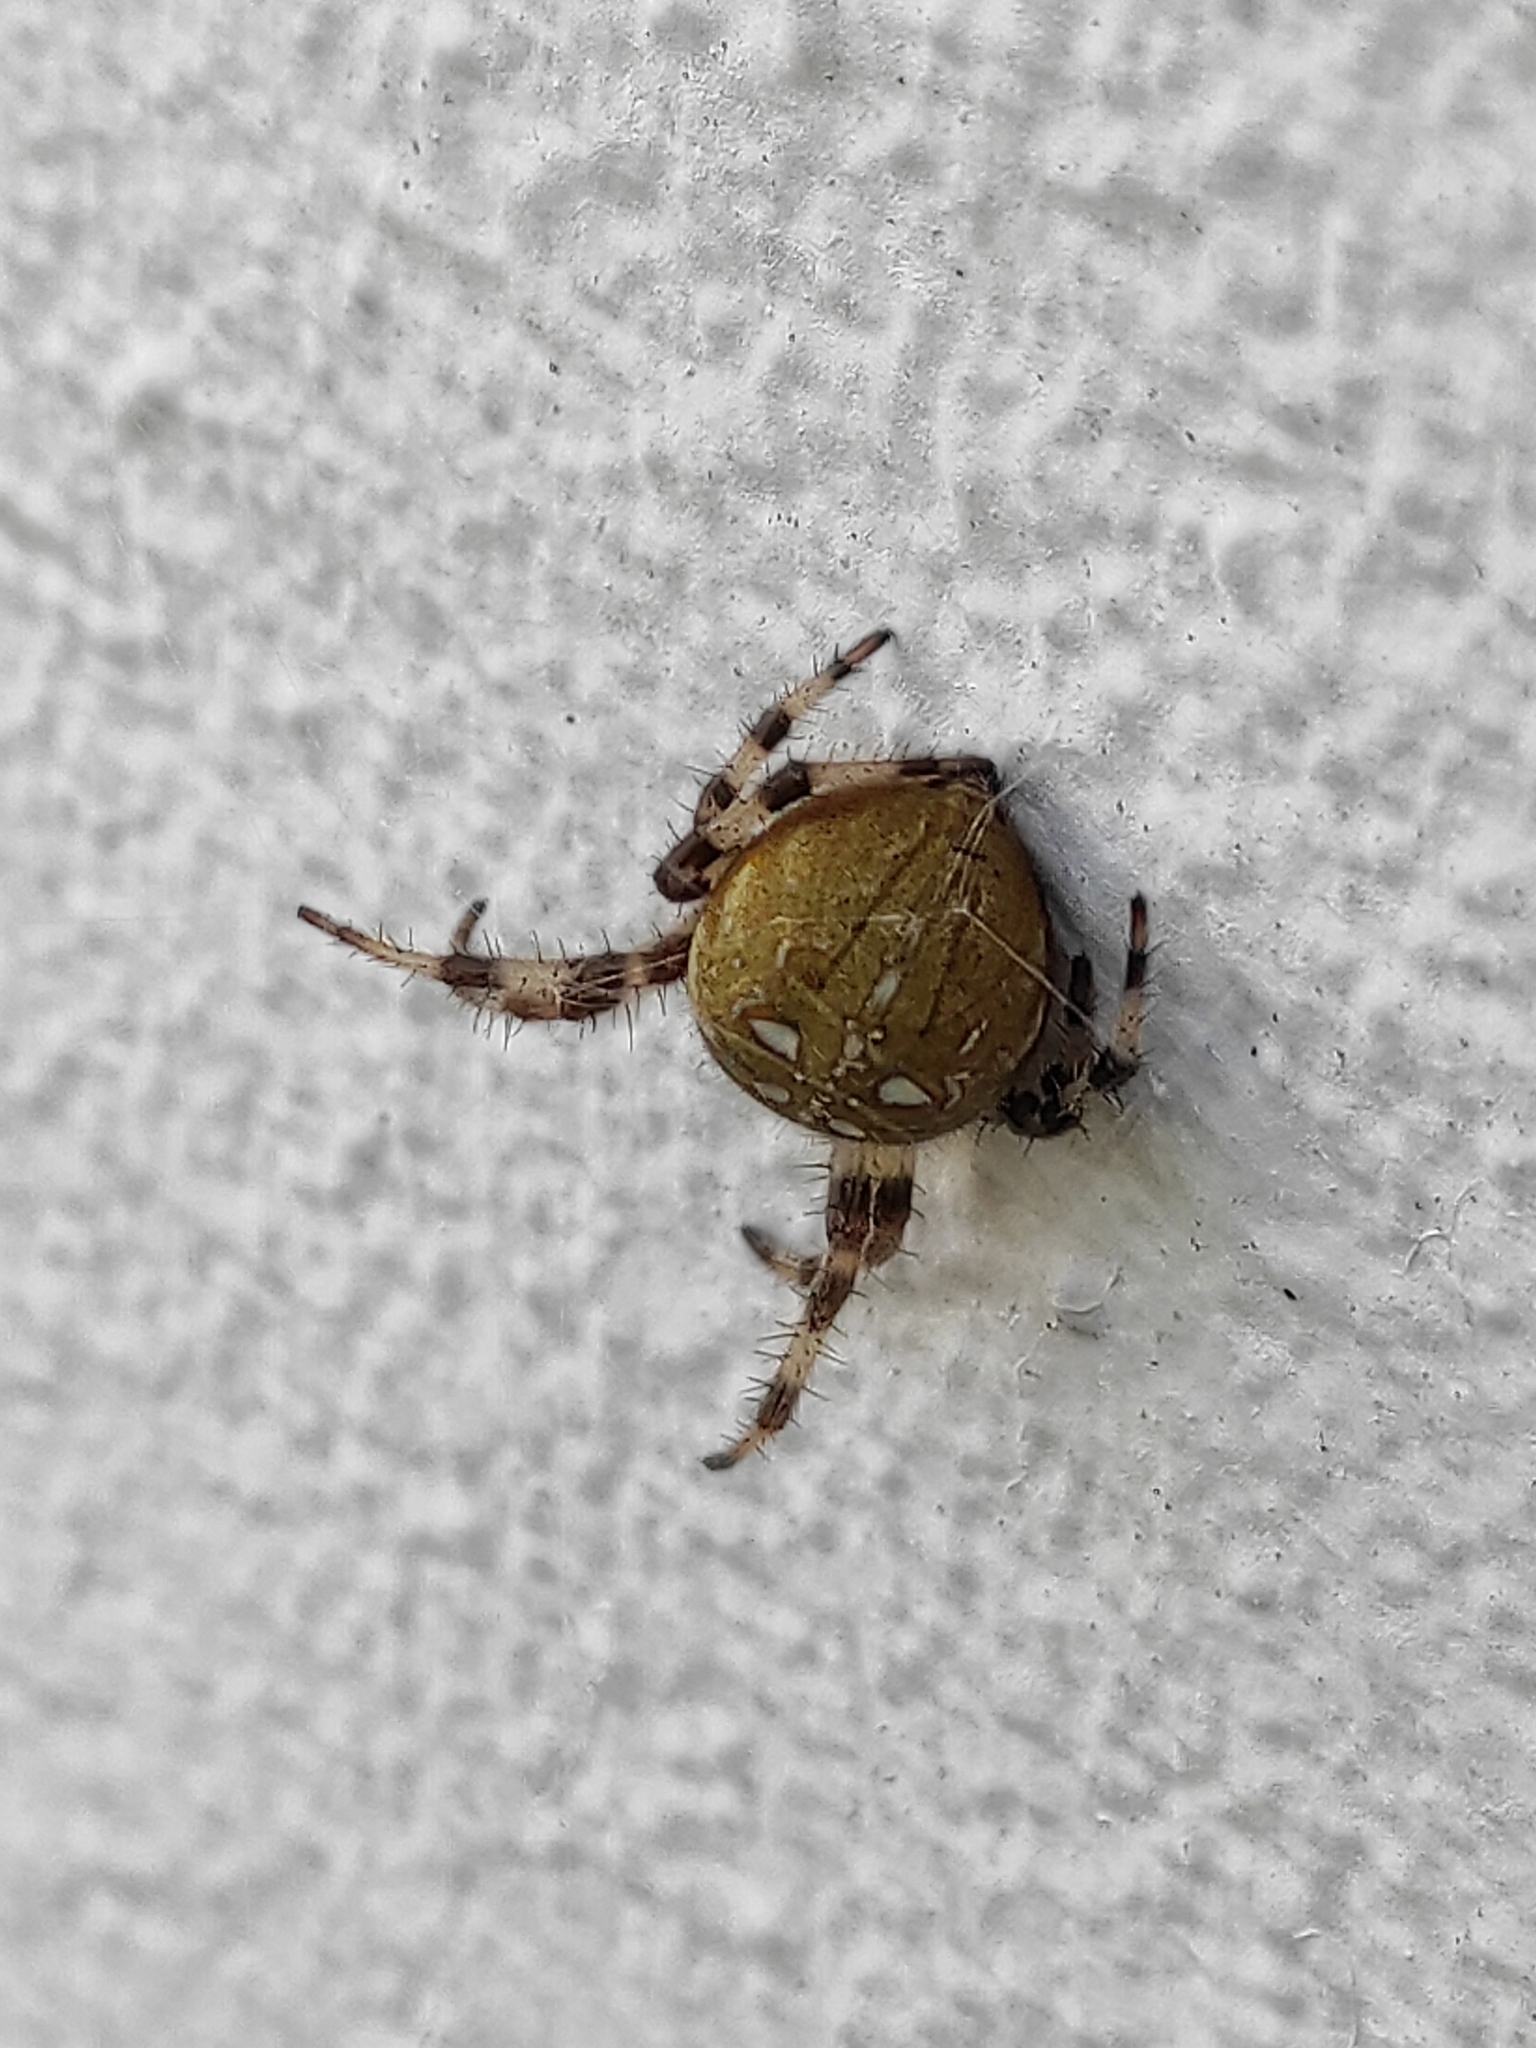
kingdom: Animalia
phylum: Arthropoda
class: Arachnida
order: Araneae
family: Araneidae
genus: Araneus
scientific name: Araneus quadratus
